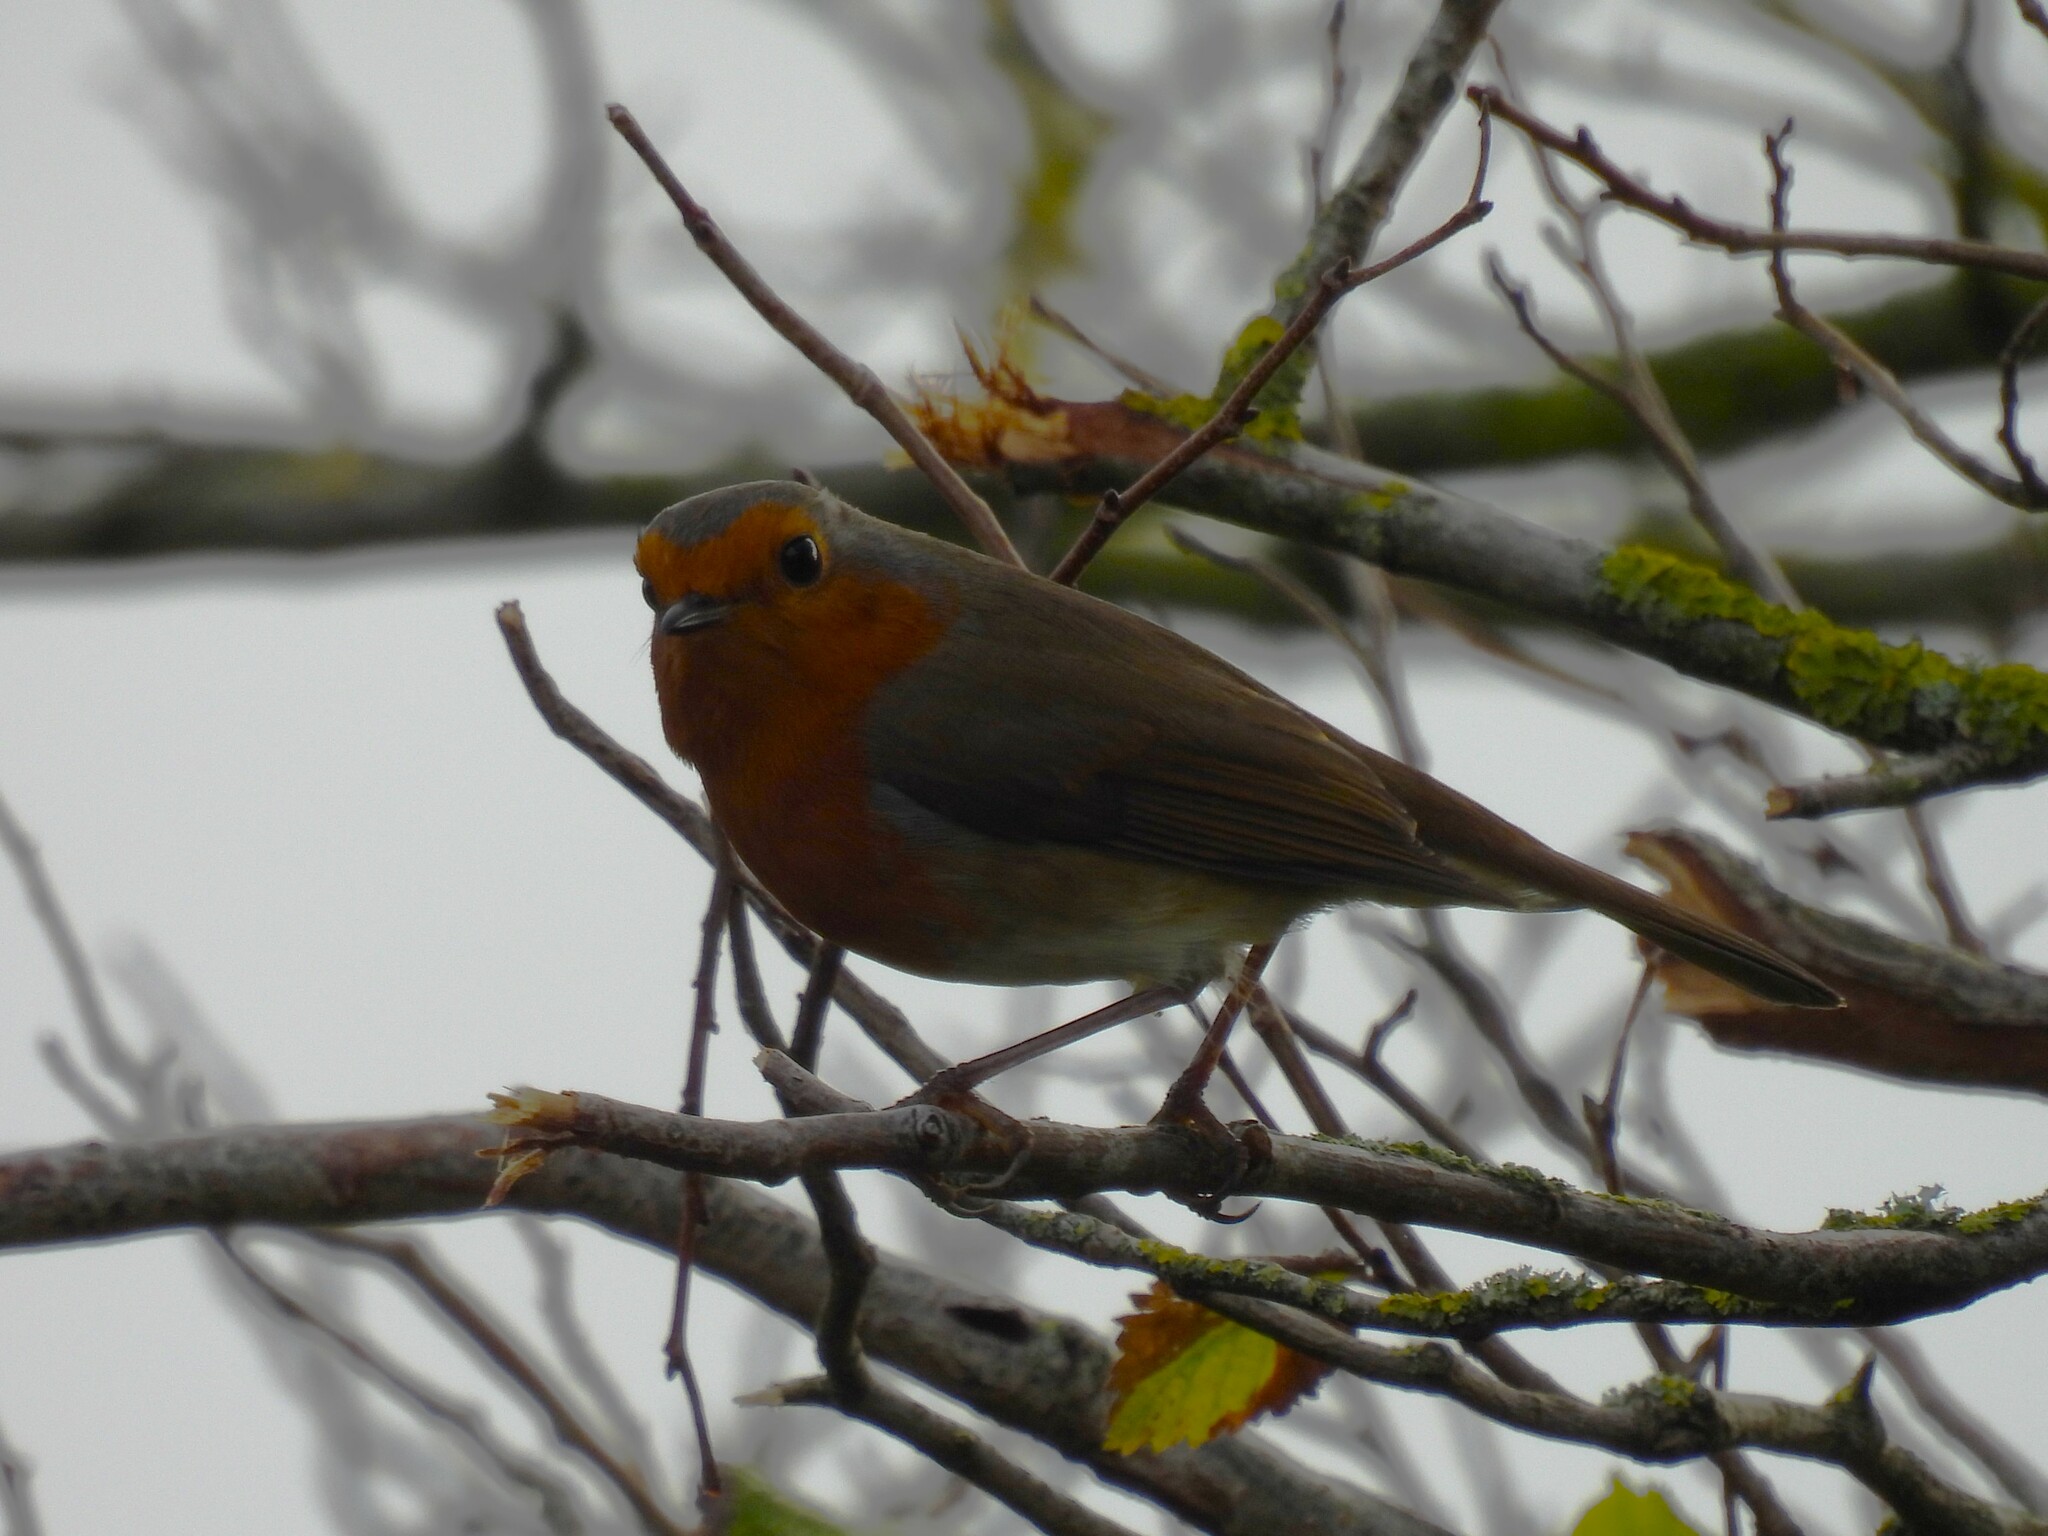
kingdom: Animalia
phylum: Chordata
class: Aves
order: Passeriformes
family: Muscicapidae
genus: Erithacus
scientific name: Erithacus rubecula
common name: European robin
